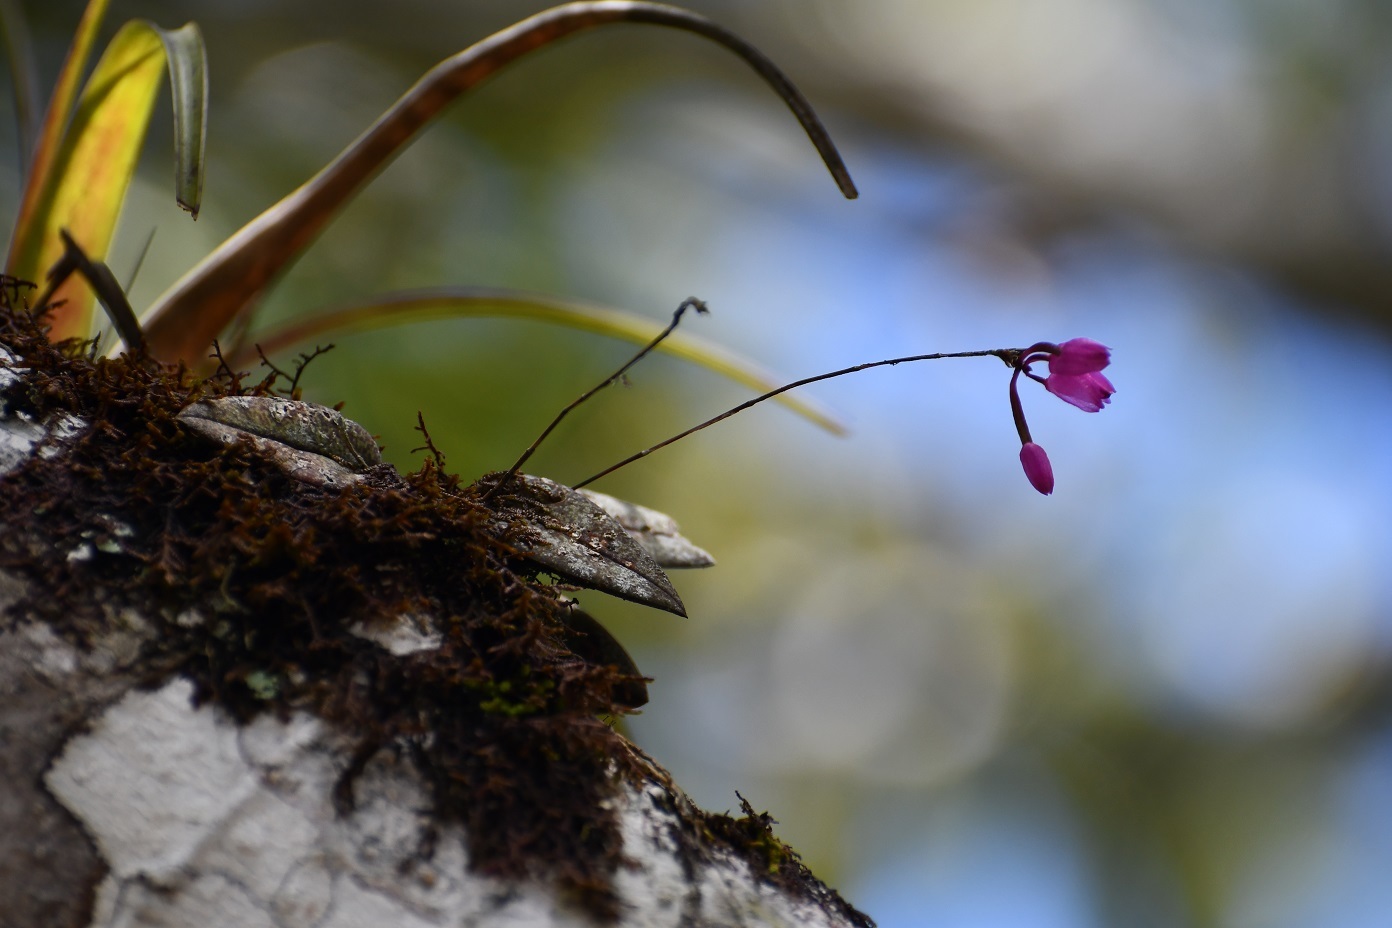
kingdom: Plantae
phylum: Tracheophyta
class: Liliopsida
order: Asparagales
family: Orchidaceae
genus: Domingoa
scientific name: Domingoa purpurea
